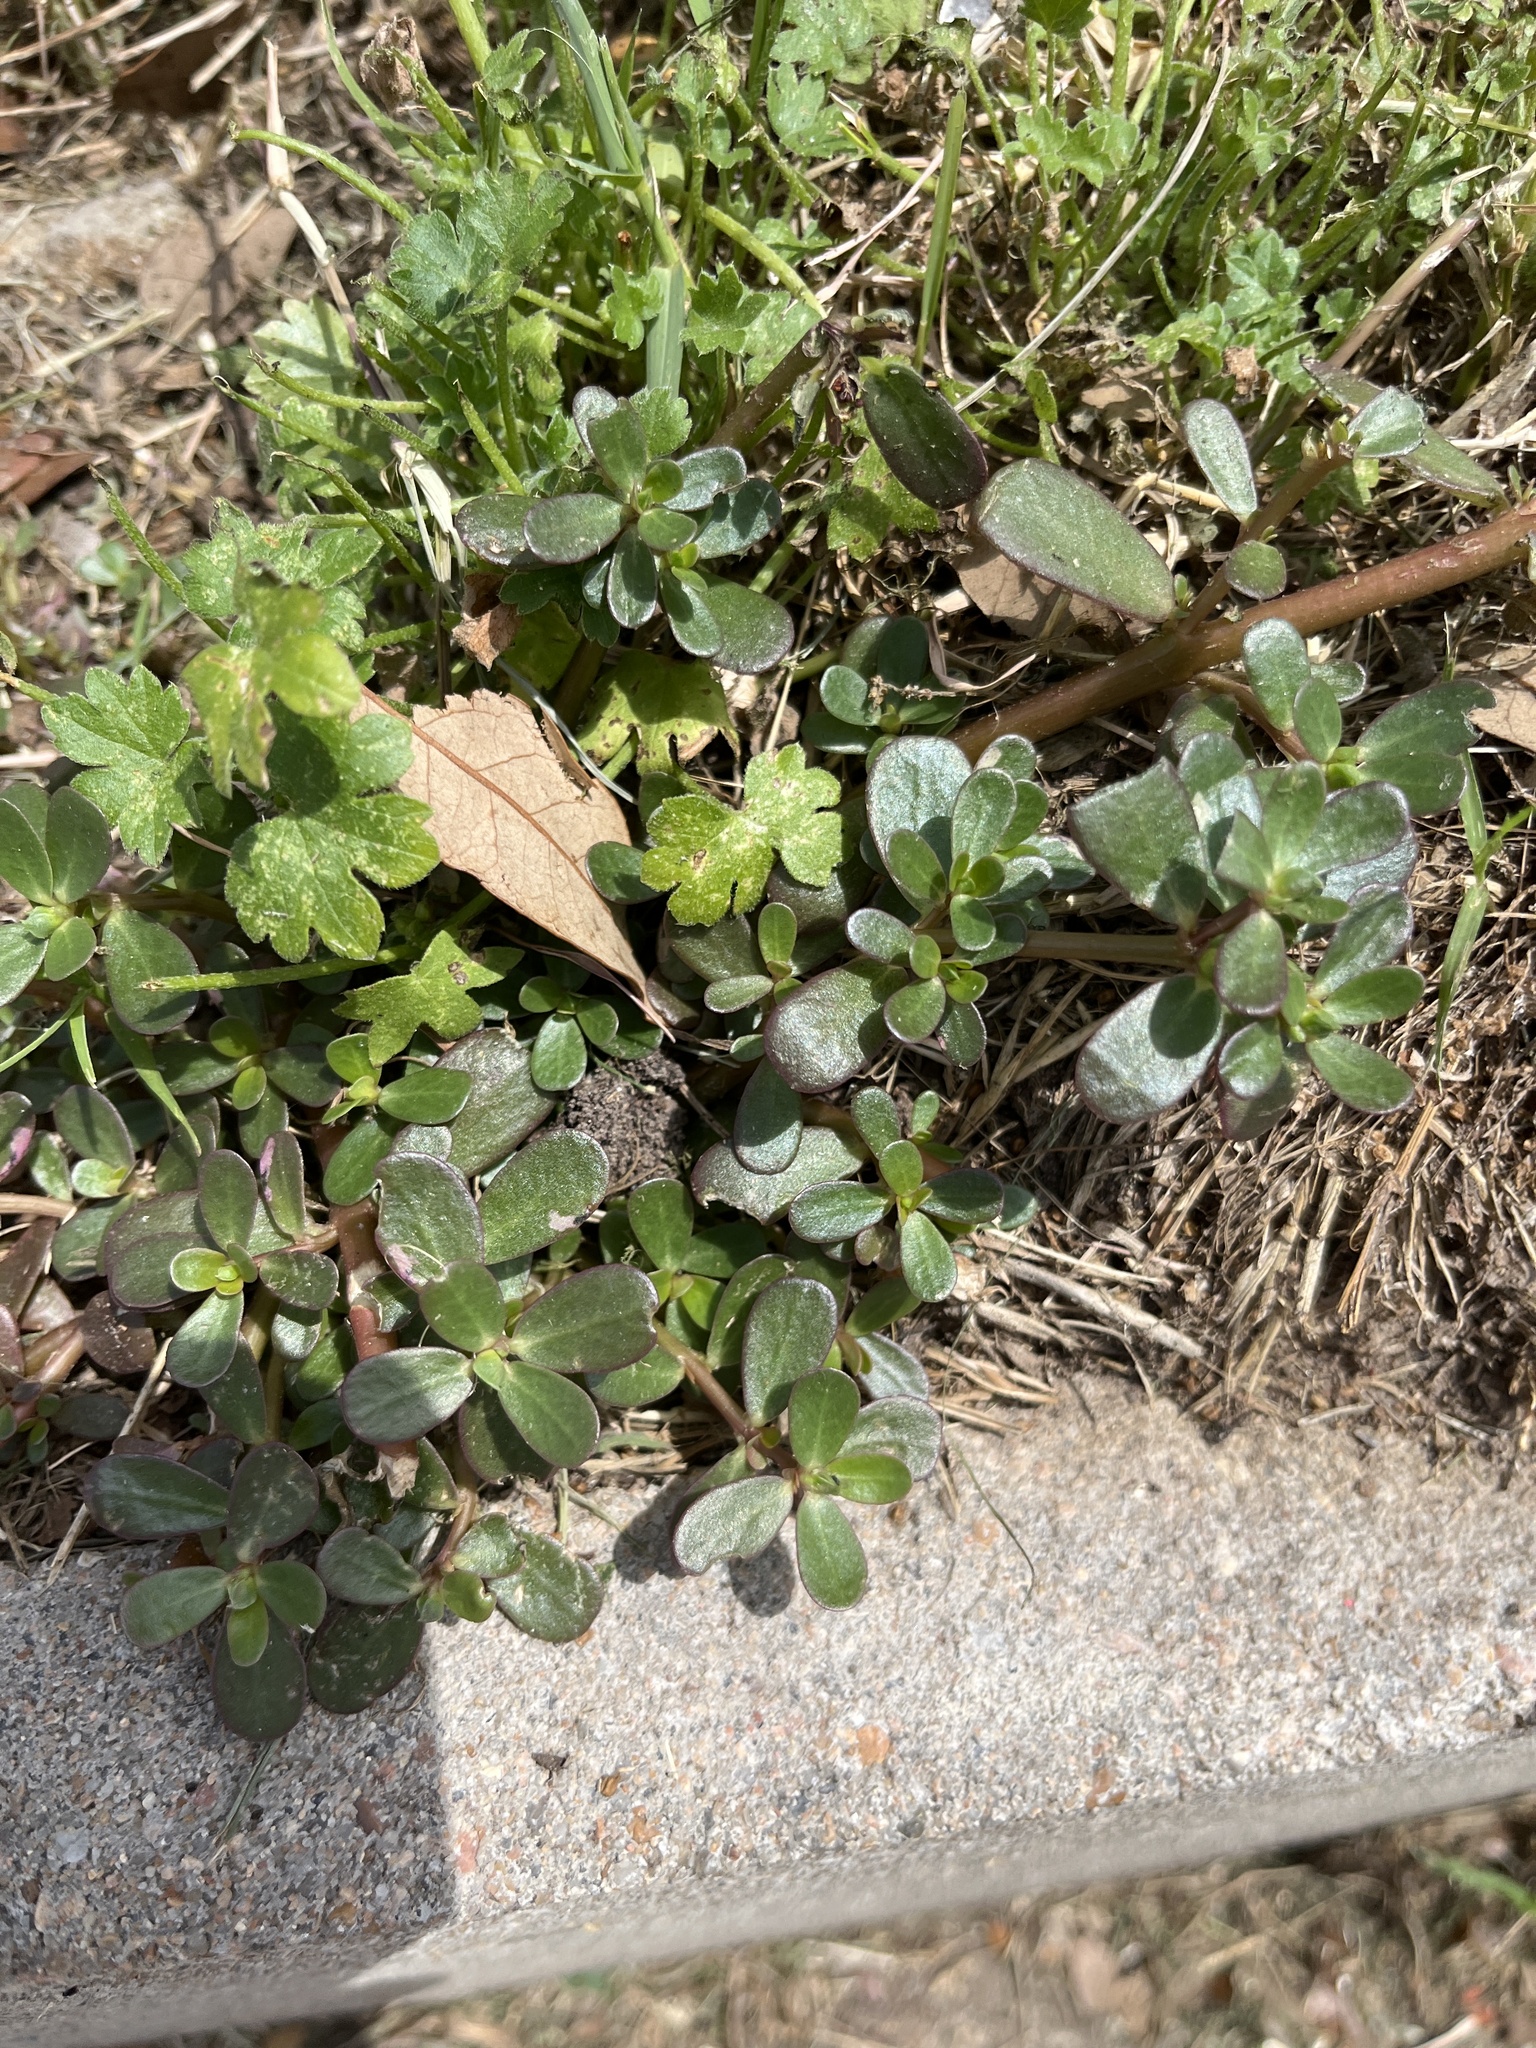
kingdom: Plantae
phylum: Tracheophyta
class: Magnoliopsida
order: Caryophyllales
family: Portulacaceae
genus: Portulaca
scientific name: Portulaca oleracea
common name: Common purslane
